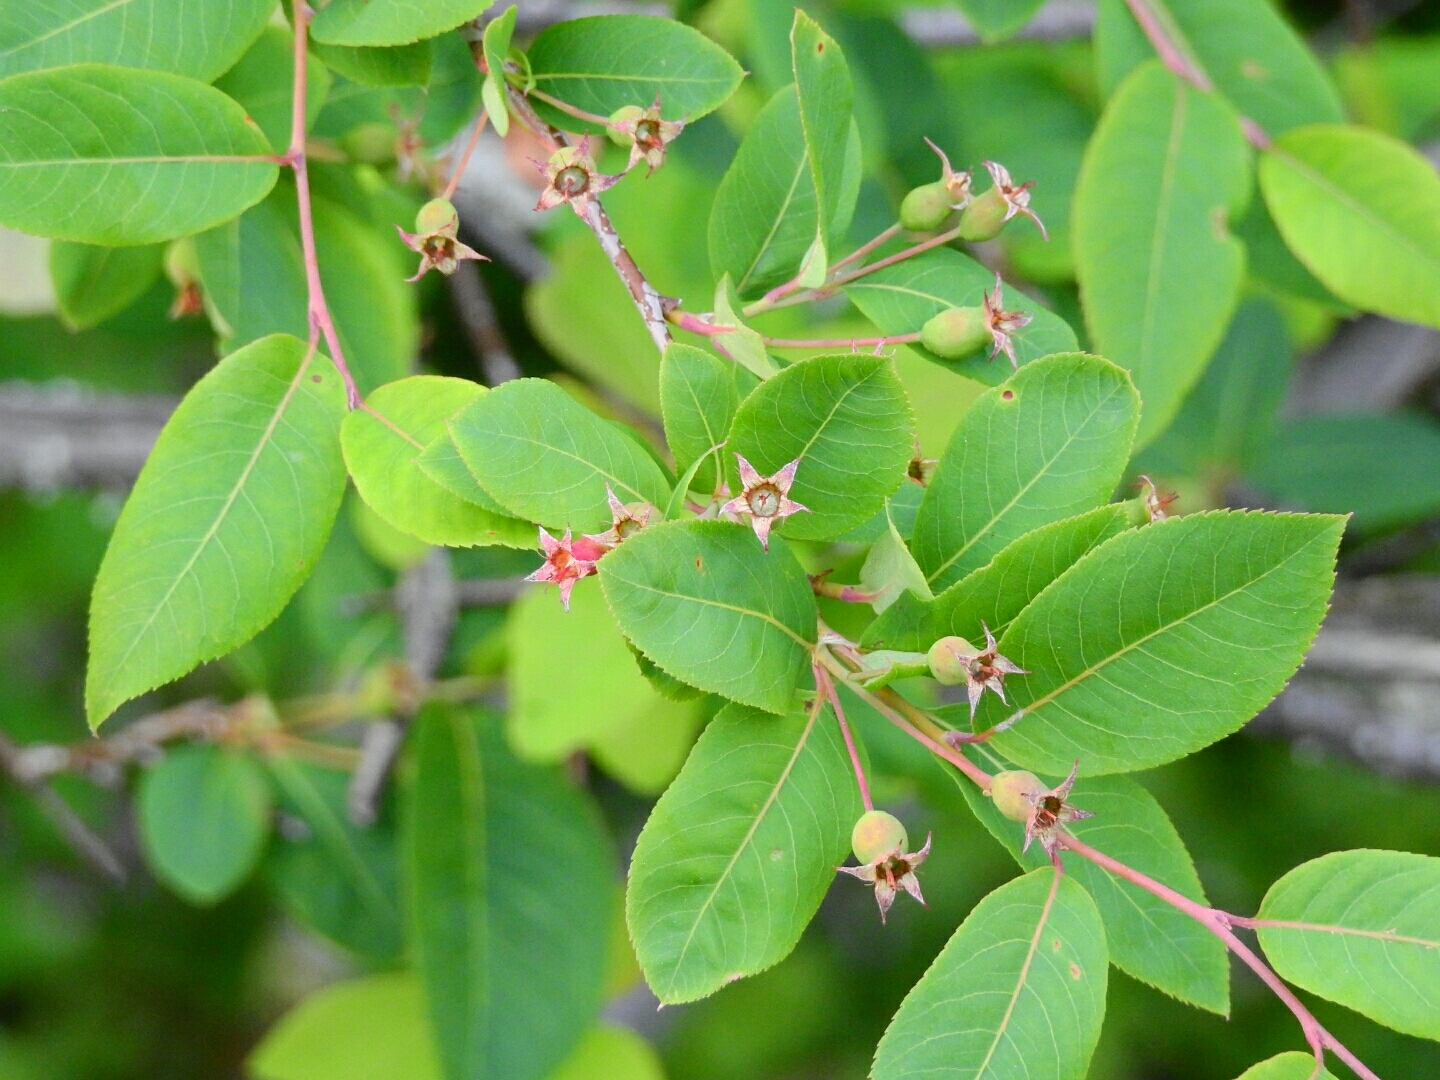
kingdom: Plantae
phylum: Tracheophyta
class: Magnoliopsida
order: Rosales
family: Rosaceae
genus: Amelanchier
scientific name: Amelanchier bartramiana
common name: Mountain serviceberry
